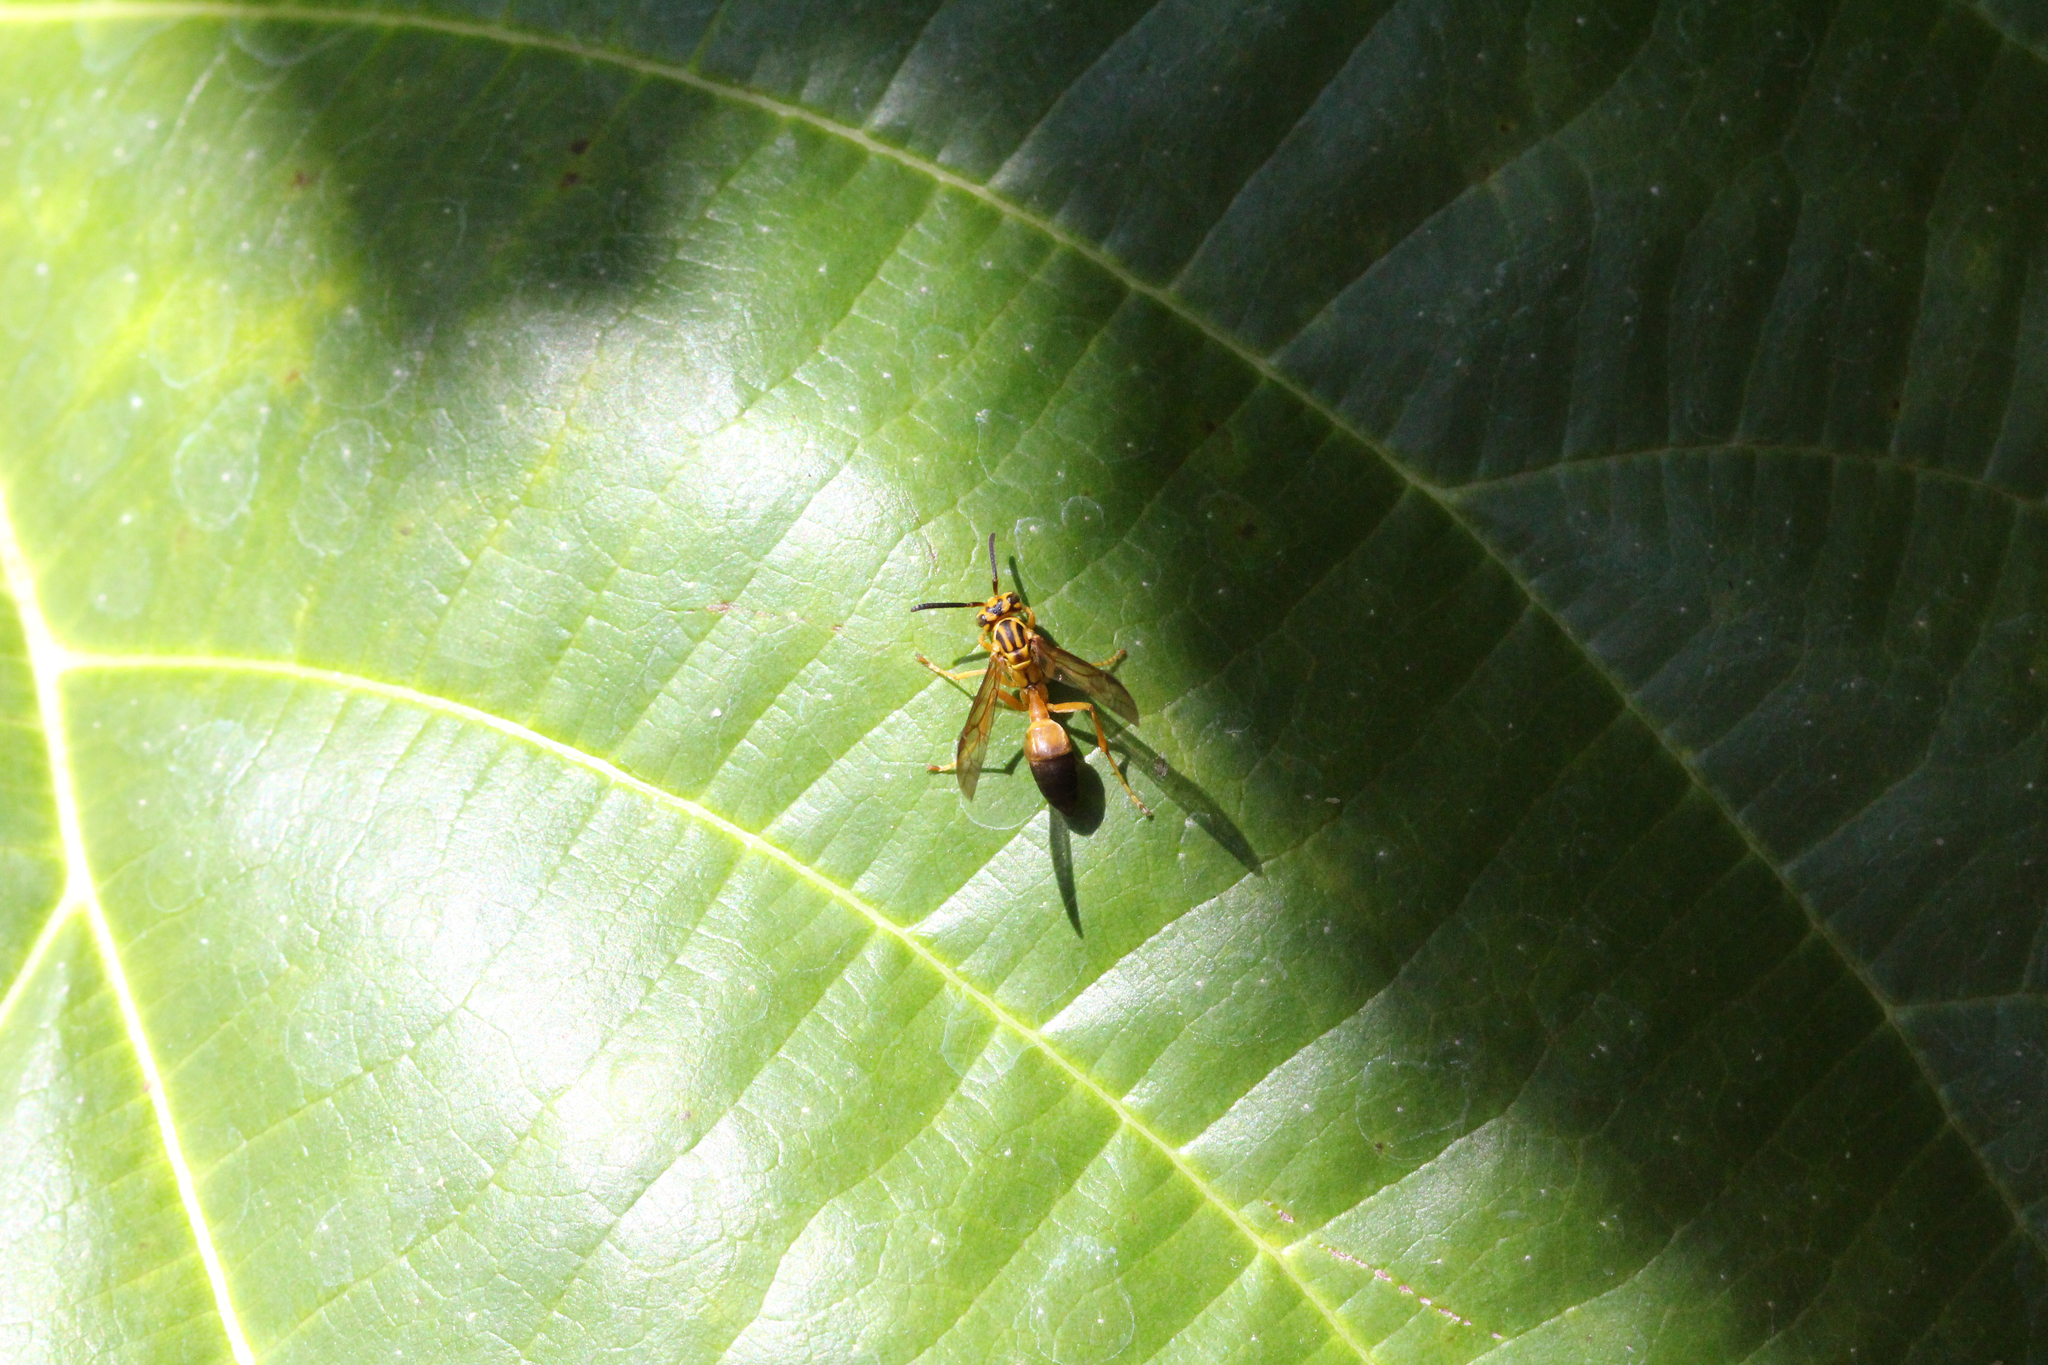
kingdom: Animalia
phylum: Arthropoda
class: Insecta
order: Hymenoptera
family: Vespidae
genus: Agelaia
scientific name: Agelaia pallipes
